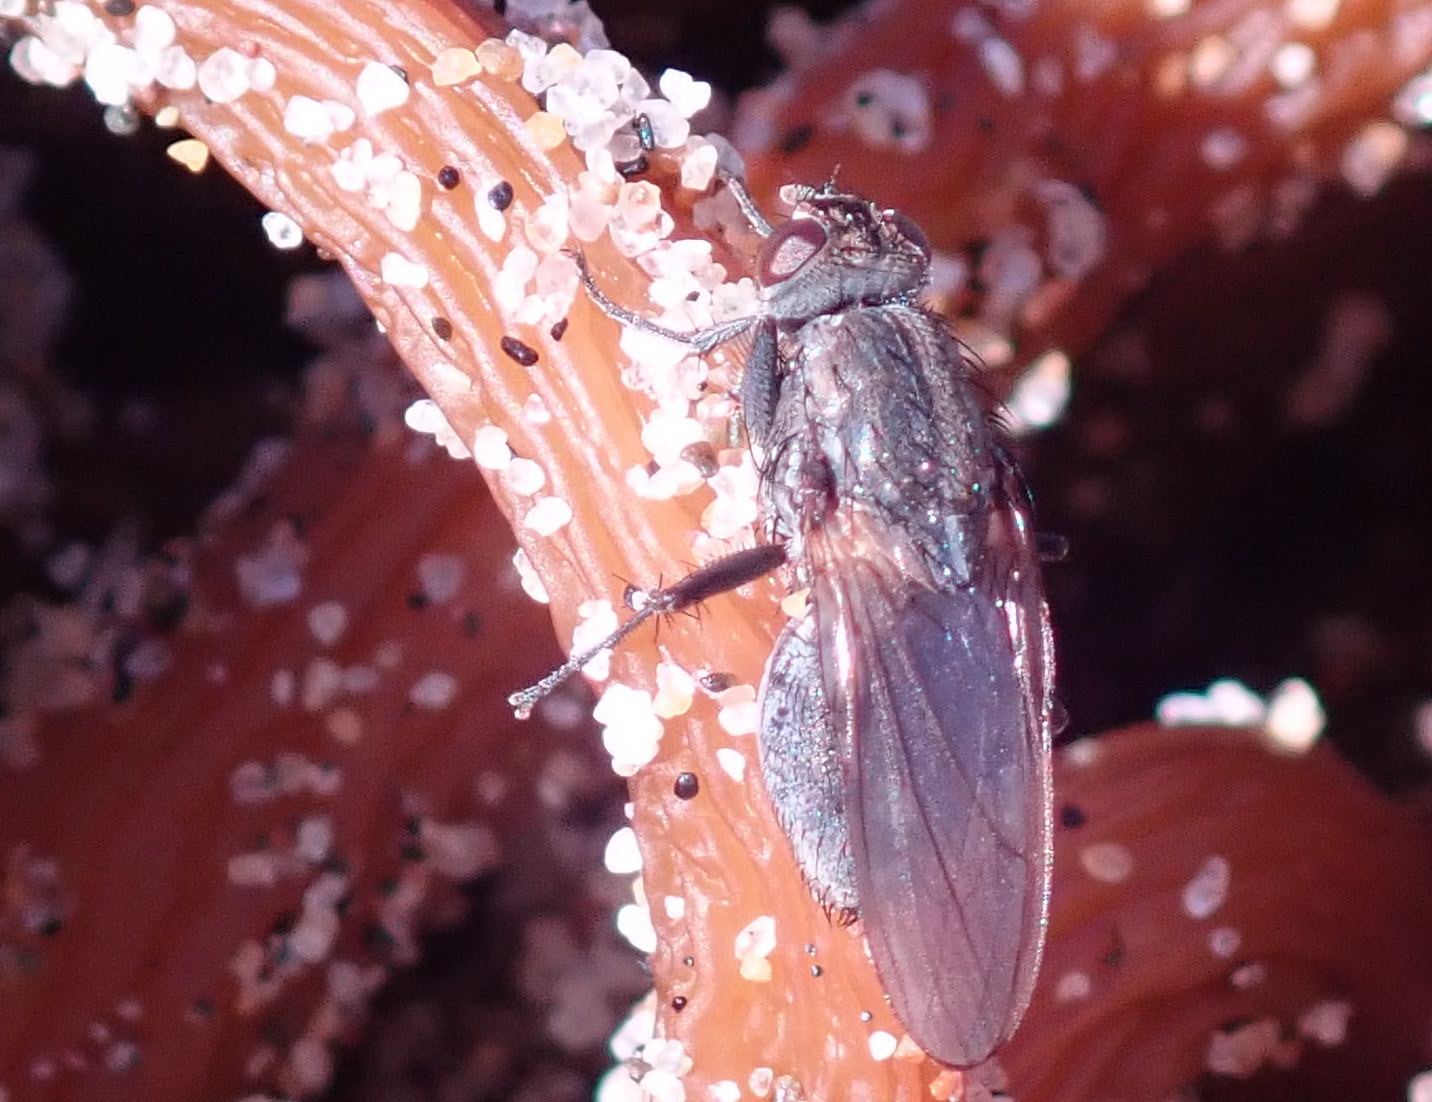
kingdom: Animalia
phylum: Arthropoda
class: Insecta
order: Diptera
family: Anthomyiidae
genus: Fucellia
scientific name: Fucellia costalis
